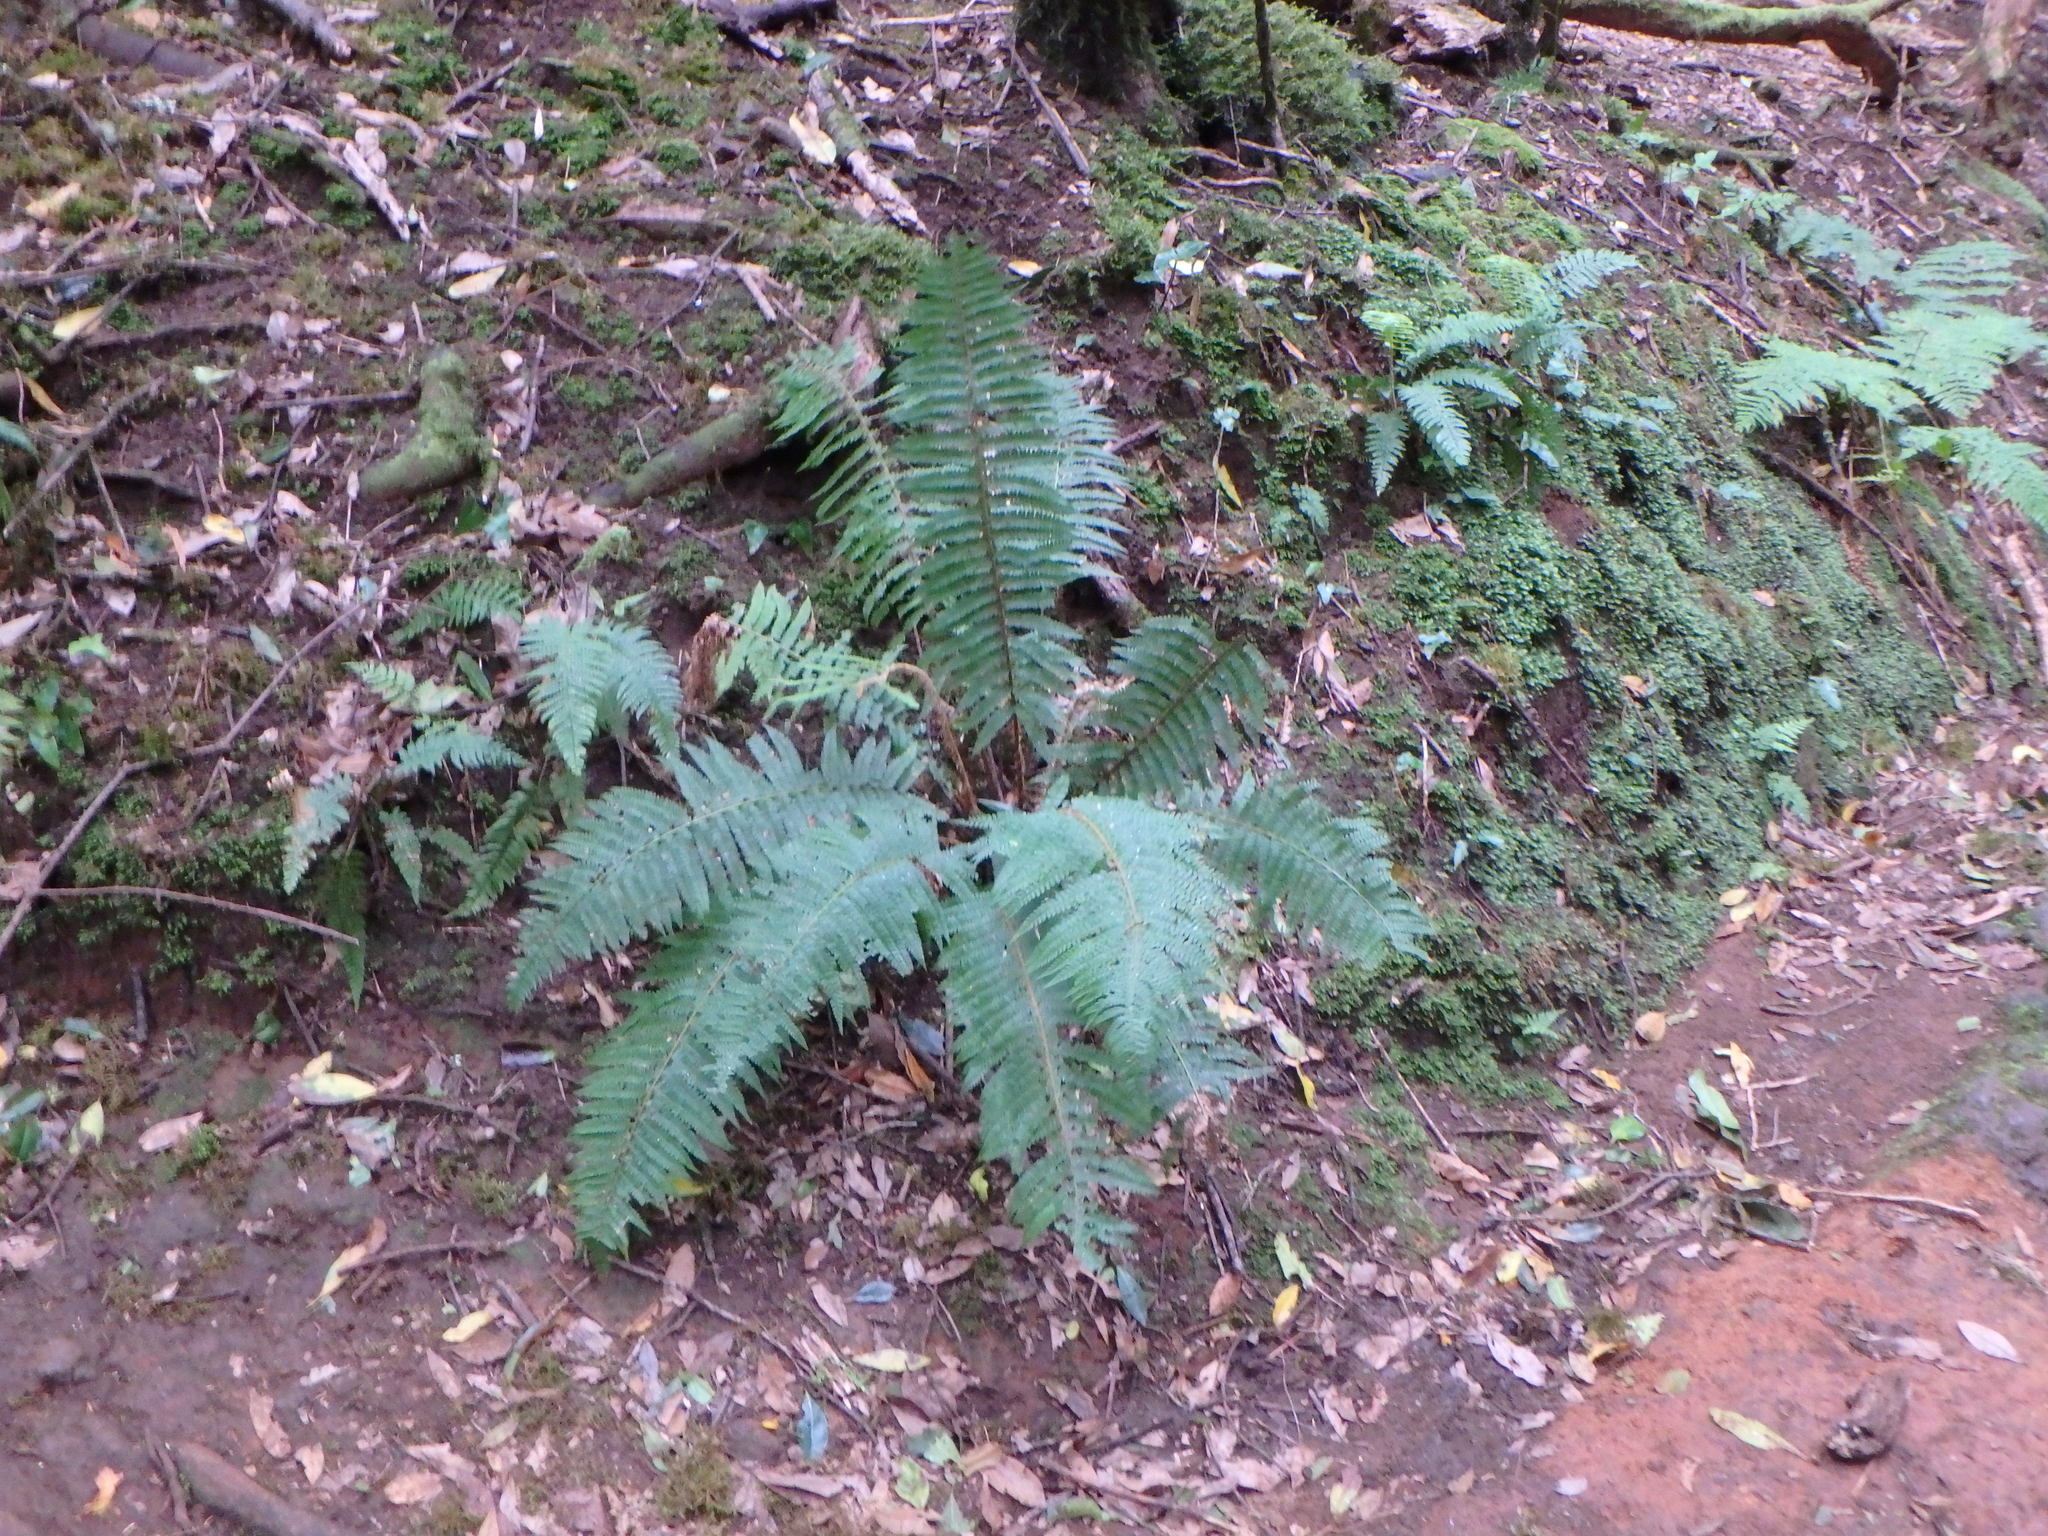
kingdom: Plantae
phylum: Tracheophyta
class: Polypodiopsida
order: Polypodiales
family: Dryopteridaceae
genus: Polystichum
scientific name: Polystichum setiferum
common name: Soft shield-fern
